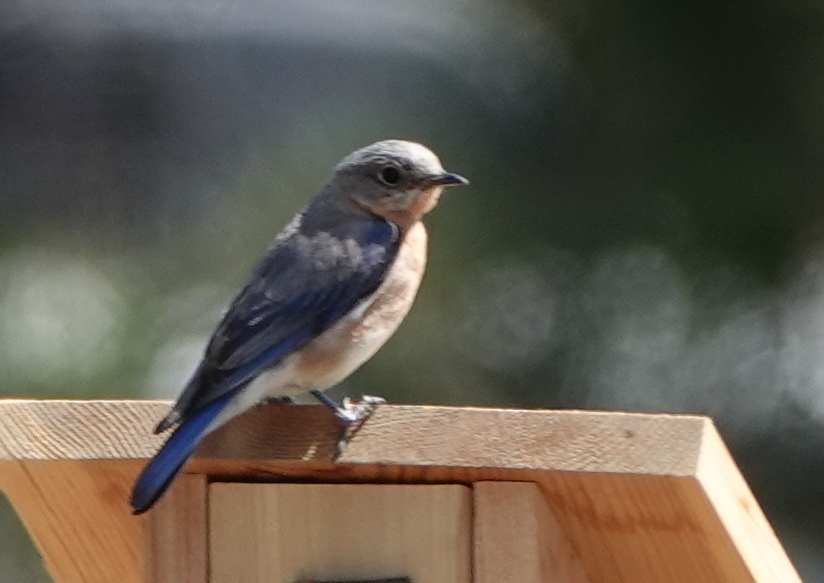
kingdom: Animalia
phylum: Chordata
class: Aves
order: Passeriformes
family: Turdidae
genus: Sialia
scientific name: Sialia sialis
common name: Eastern bluebird
